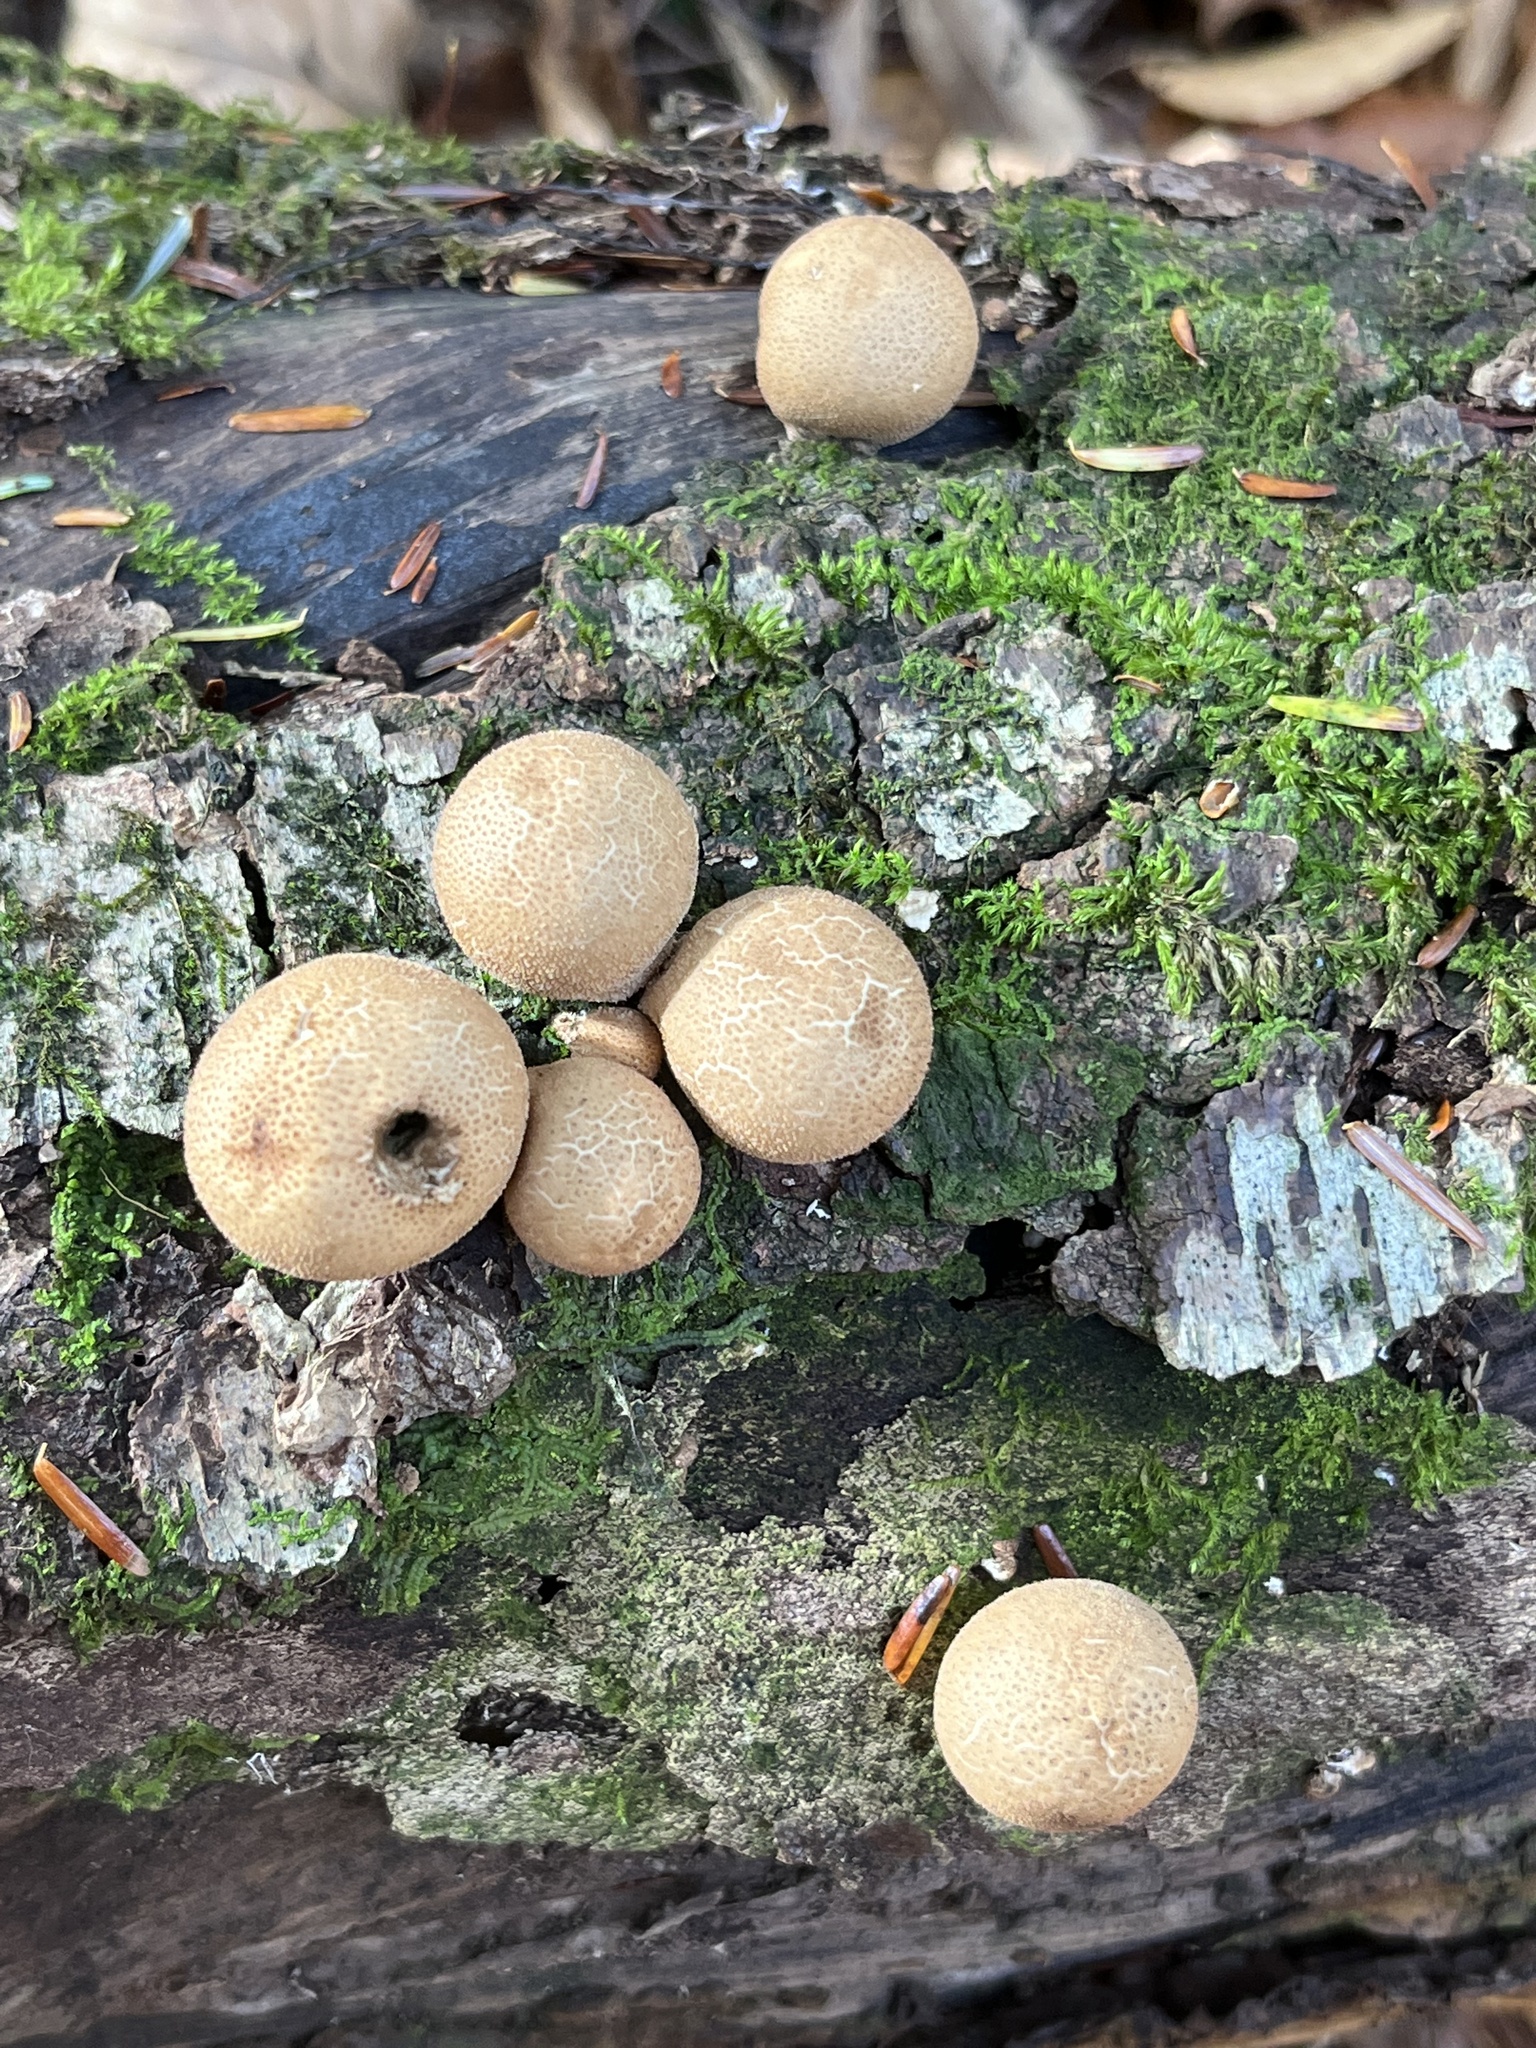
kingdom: Fungi
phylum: Basidiomycota
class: Agaricomycetes
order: Agaricales
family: Lycoperdaceae
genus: Apioperdon
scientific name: Apioperdon pyriforme
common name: Pear-shaped puffball
